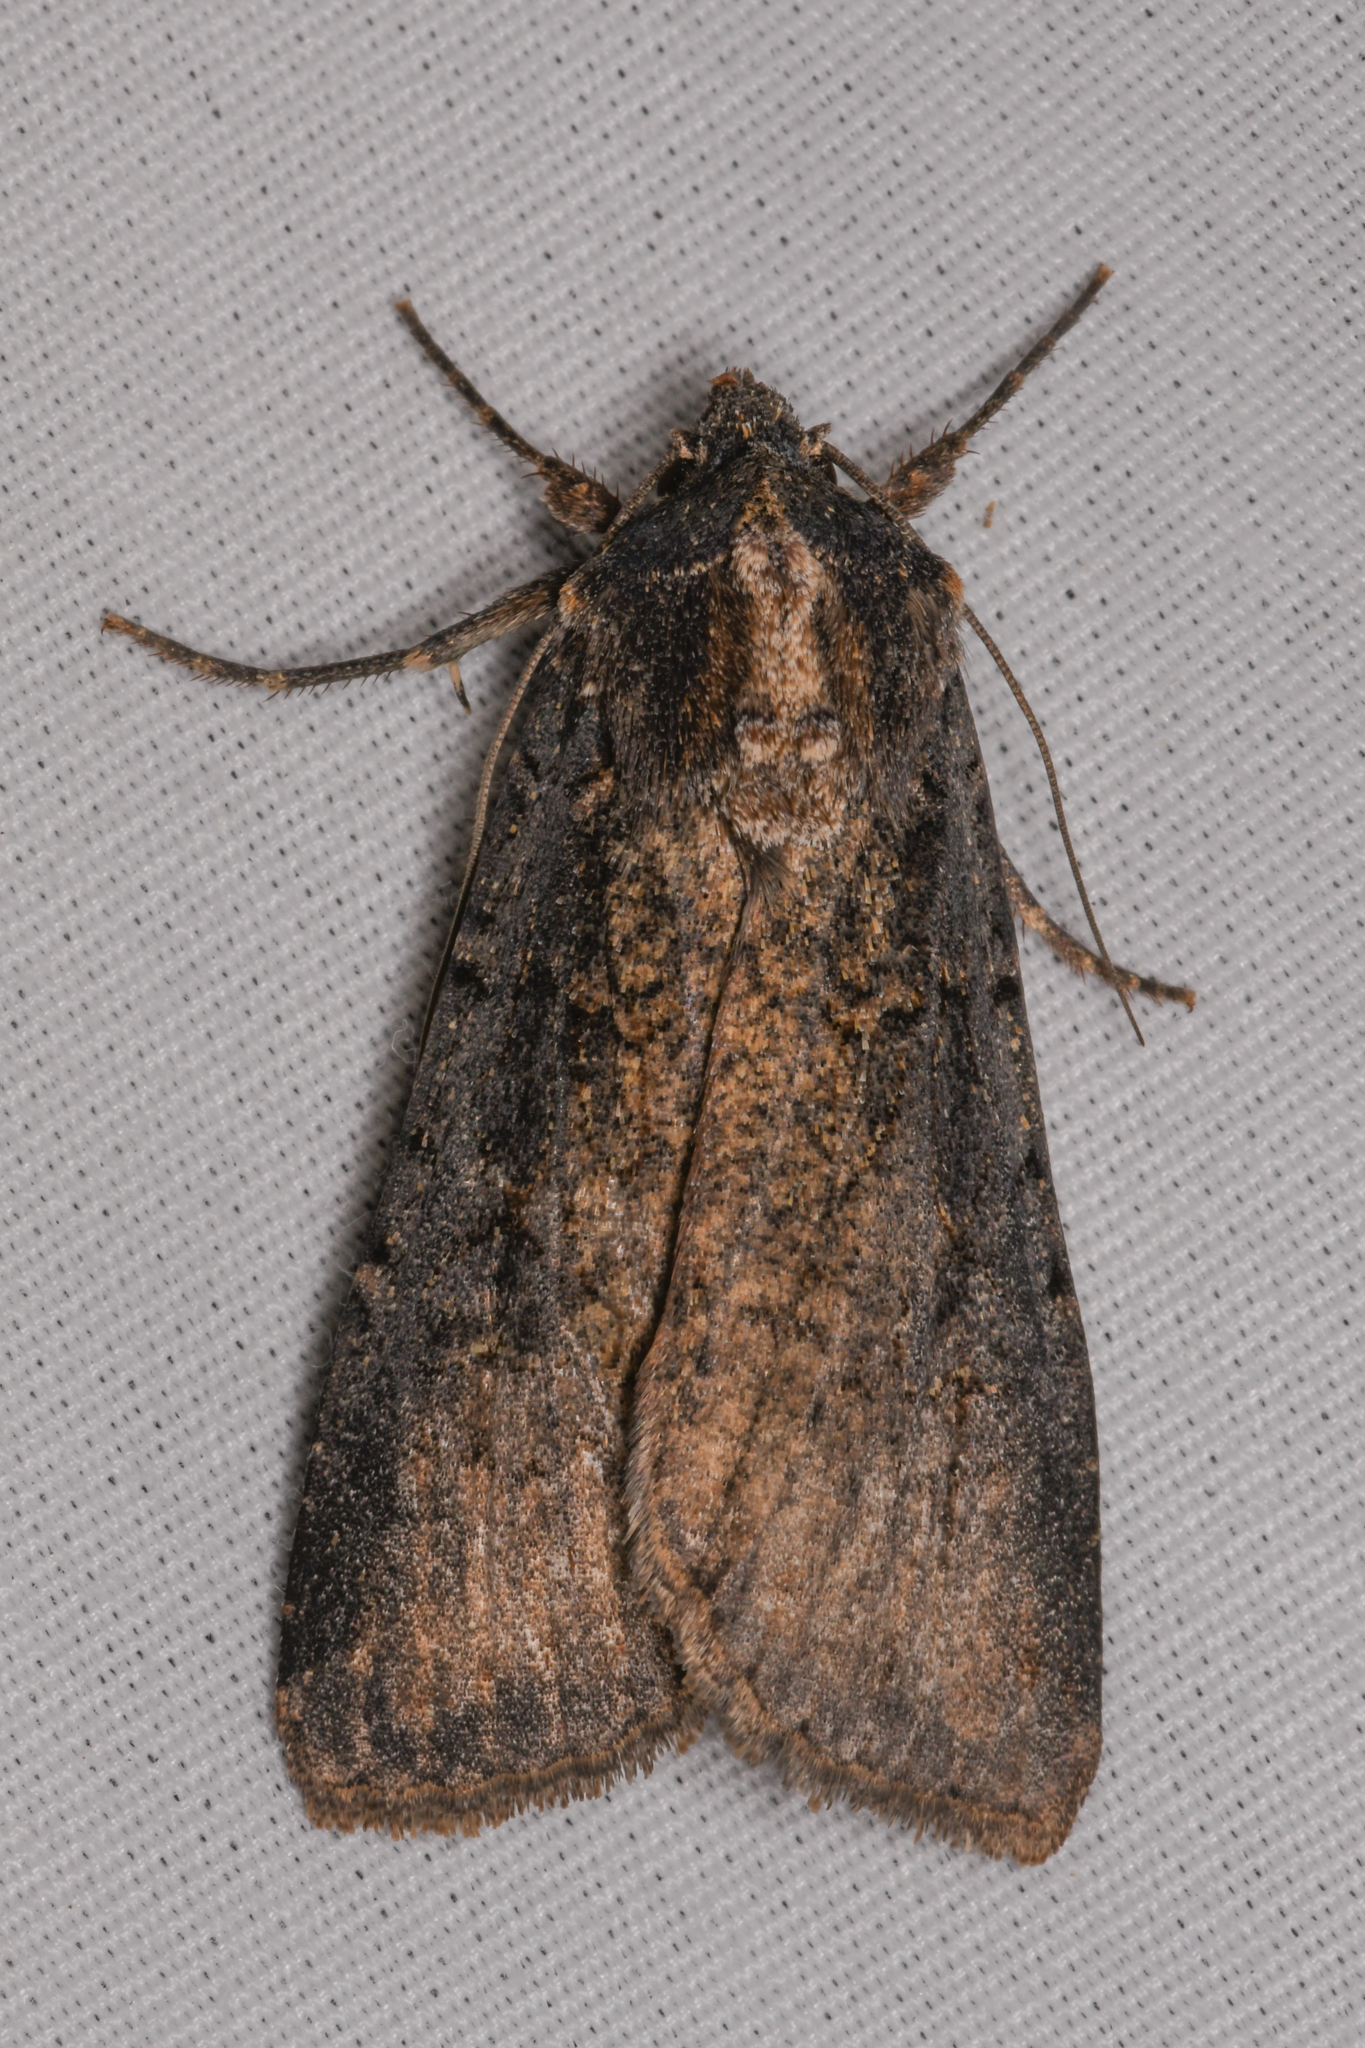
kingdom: Animalia
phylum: Arthropoda
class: Insecta
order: Lepidoptera
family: Noctuidae
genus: Peridroma
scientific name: Peridroma saucia
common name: Pearly underwing
